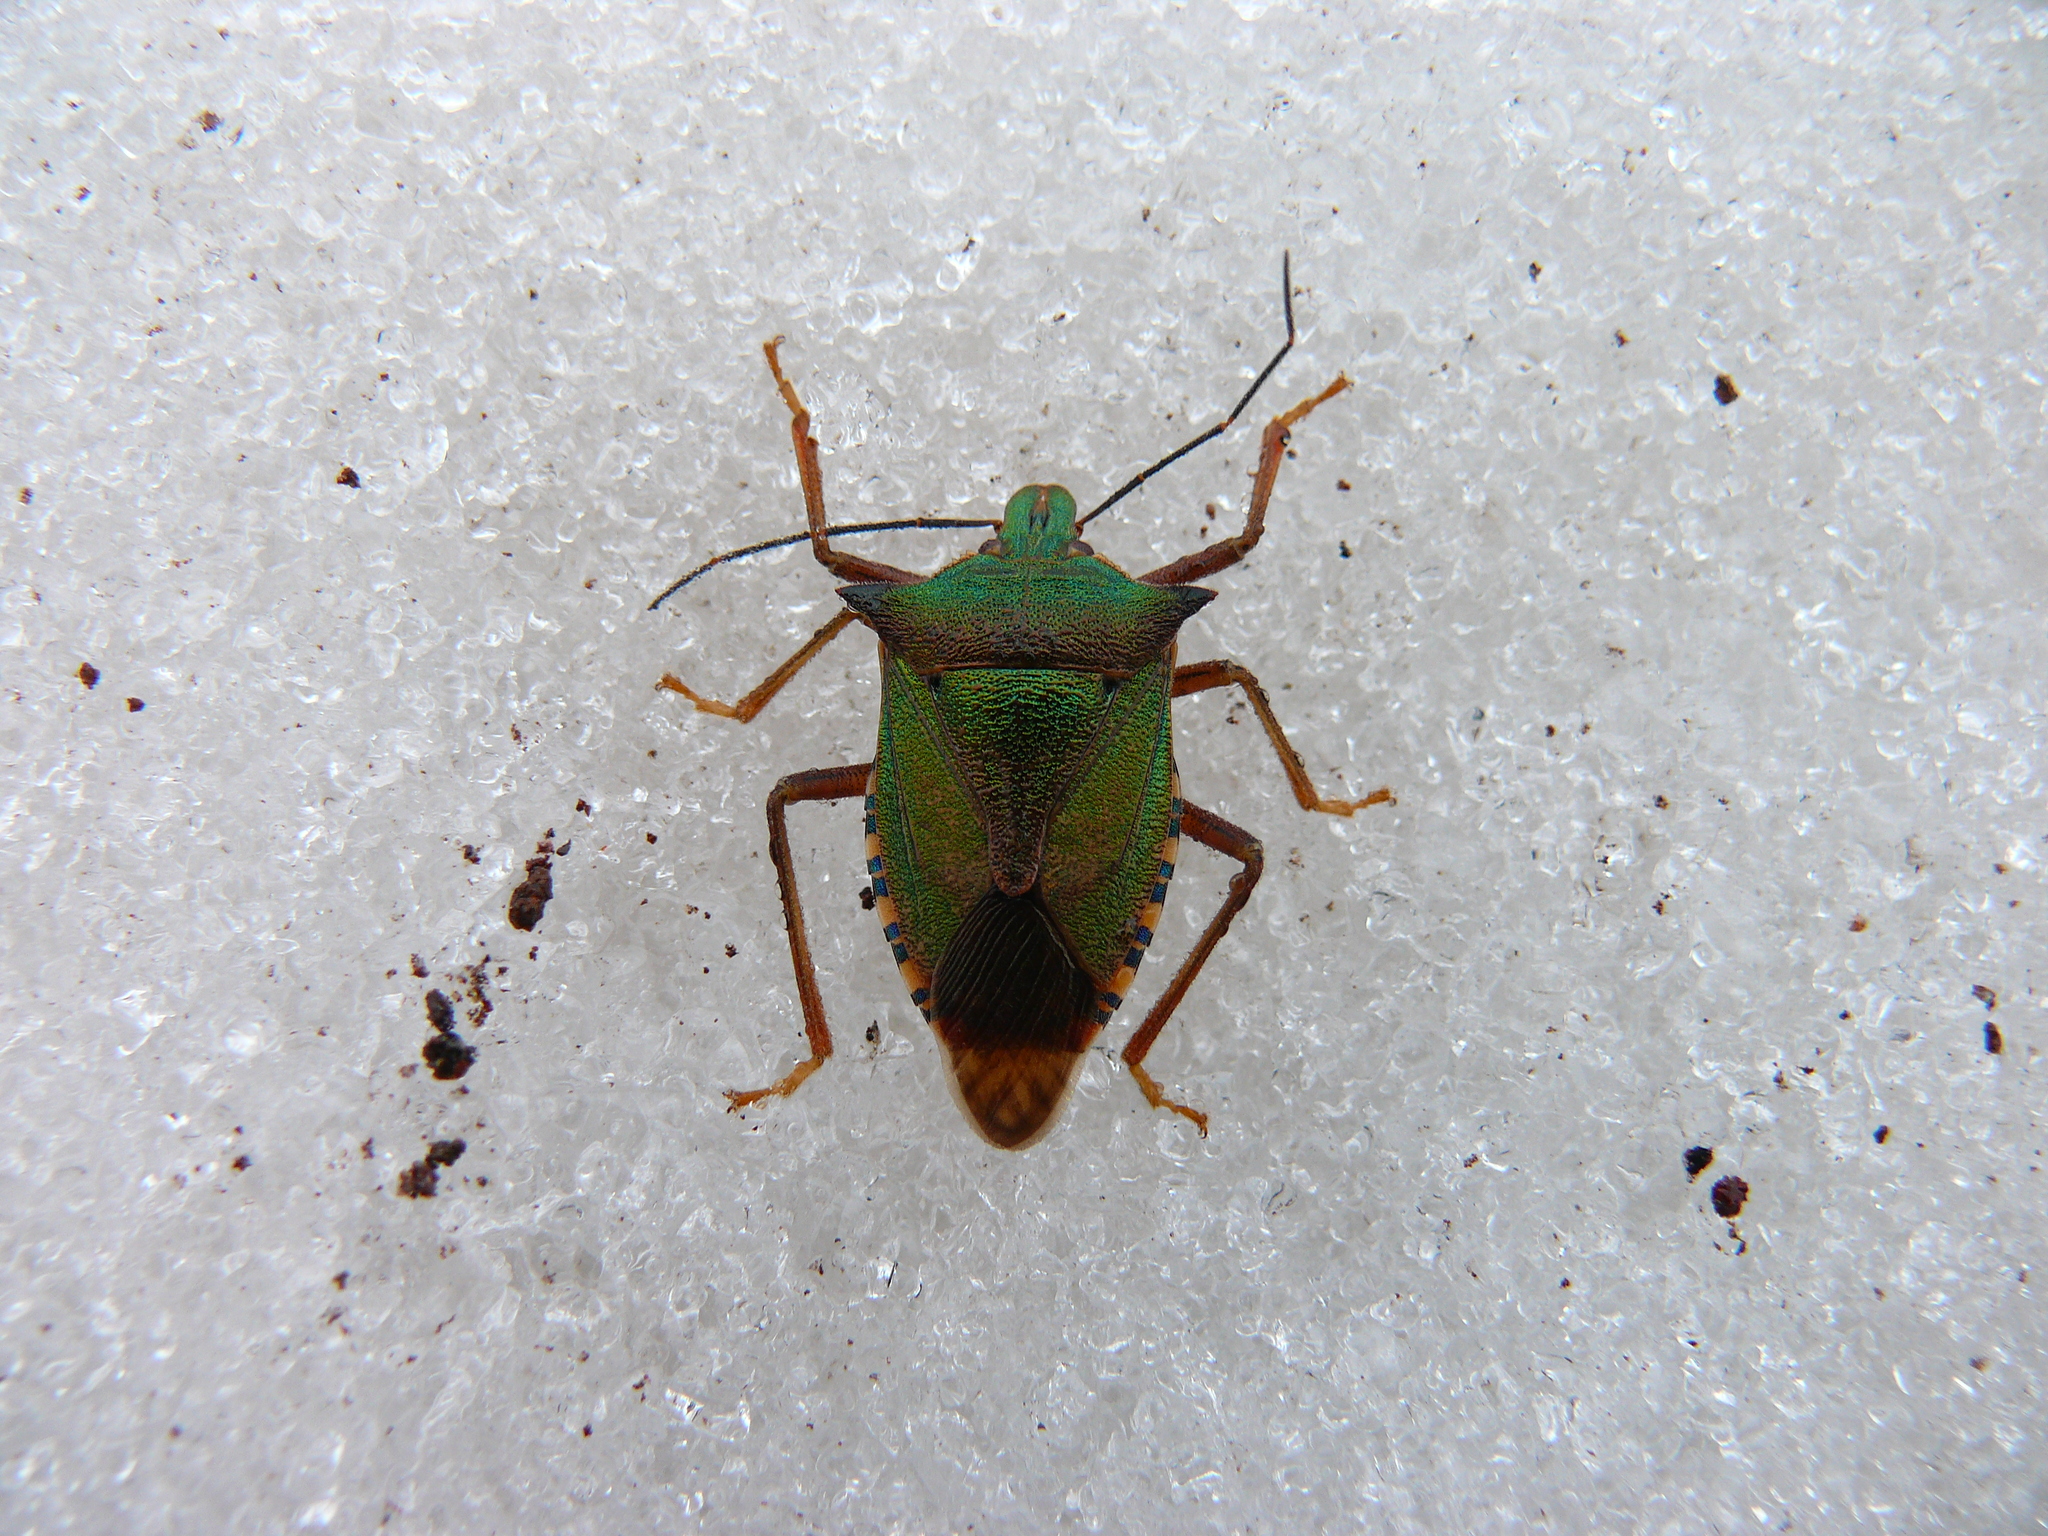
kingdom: Animalia
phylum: Arthropoda
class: Insecta
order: Hemiptera
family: Pentatomidae
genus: Dinorhynchus
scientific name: Dinorhynchus dybowskyi
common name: Stink bug
